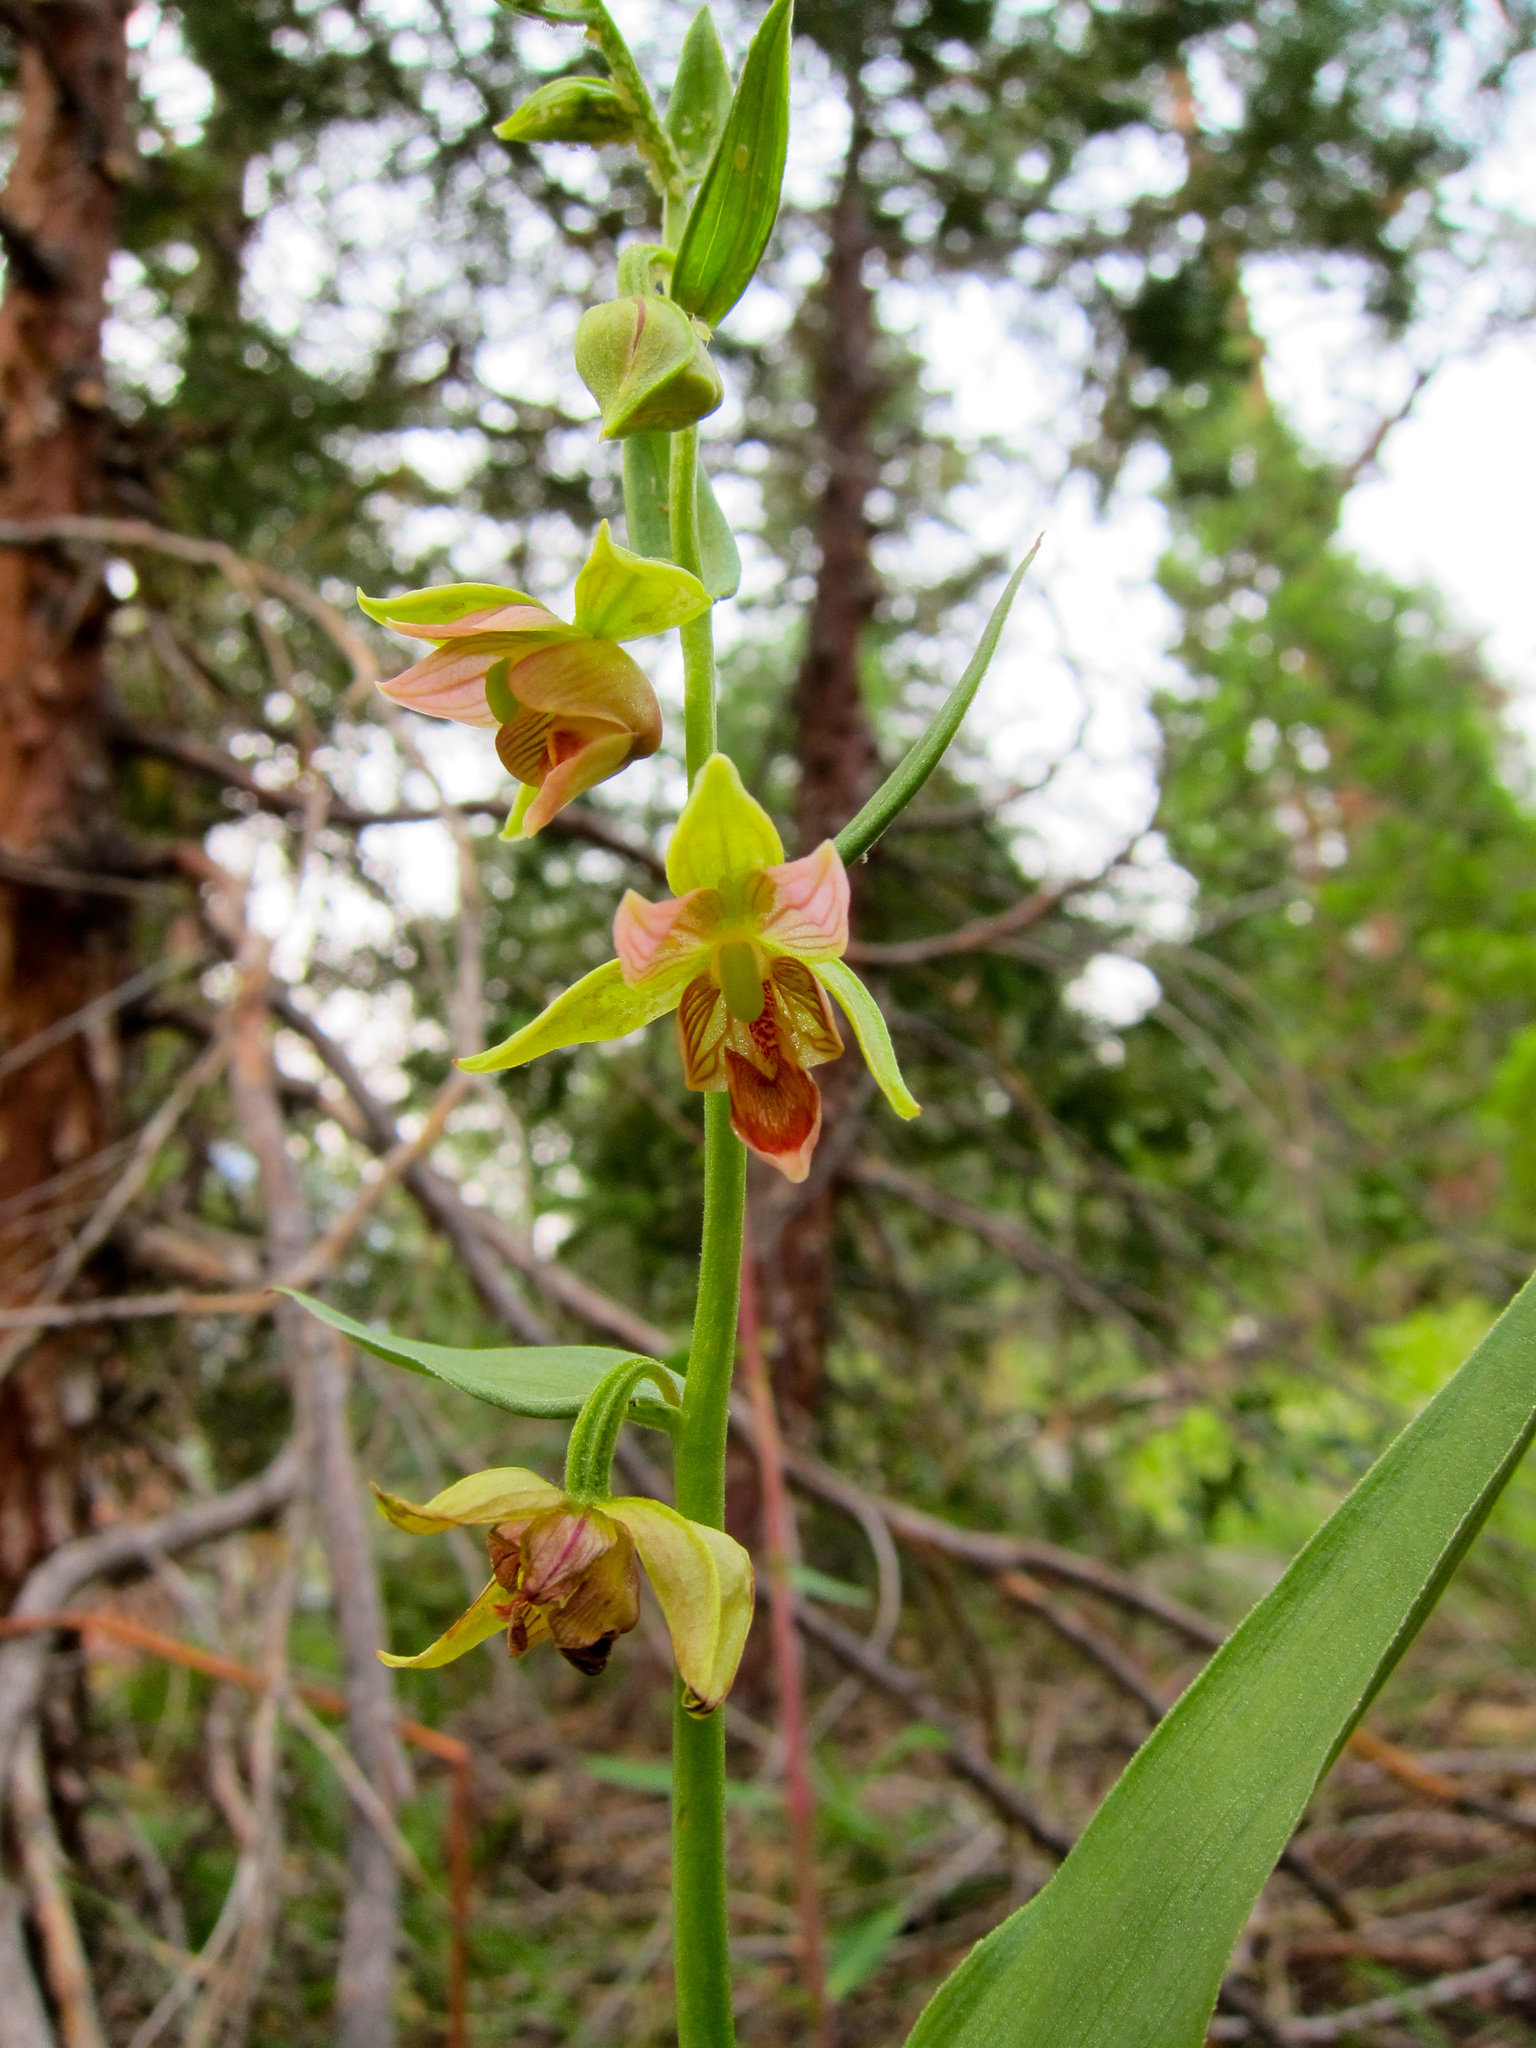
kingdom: Plantae
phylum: Tracheophyta
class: Liliopsida
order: Asparagales
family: Orchidaceae
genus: Epipactis
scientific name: Epipactis gigantea
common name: Chatterbox
